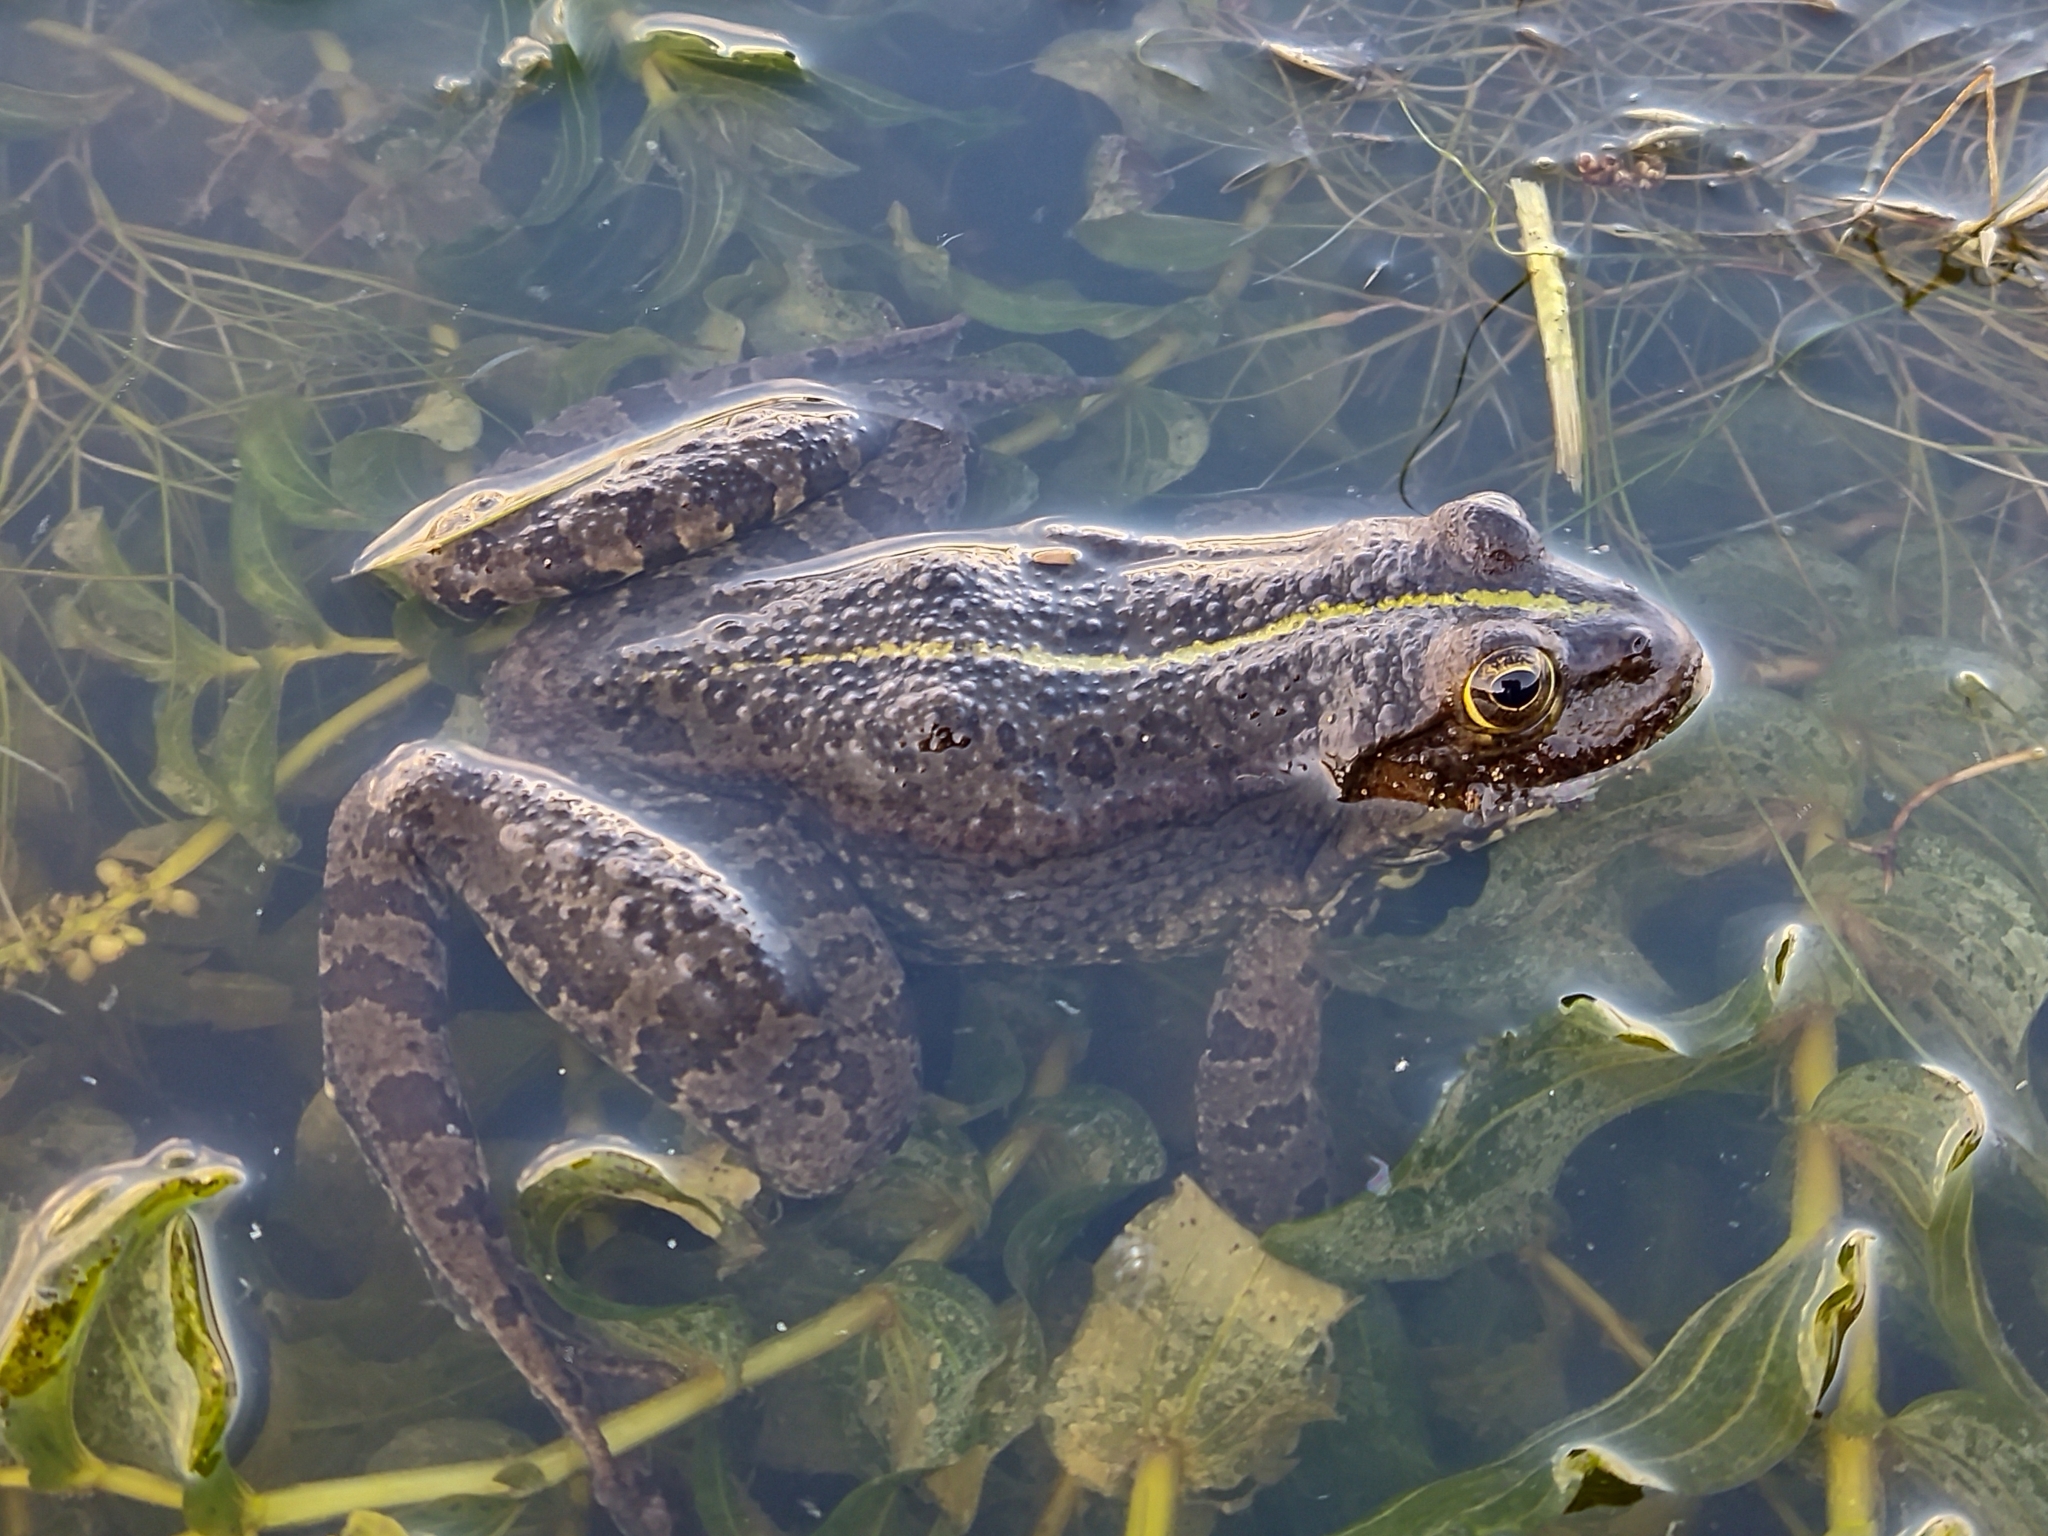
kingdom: Animalia
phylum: Chordata
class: Amphibia
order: Anura
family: Ranidae
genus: Pelophylax
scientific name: Pelophylax ridibundus
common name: Marsh frog
